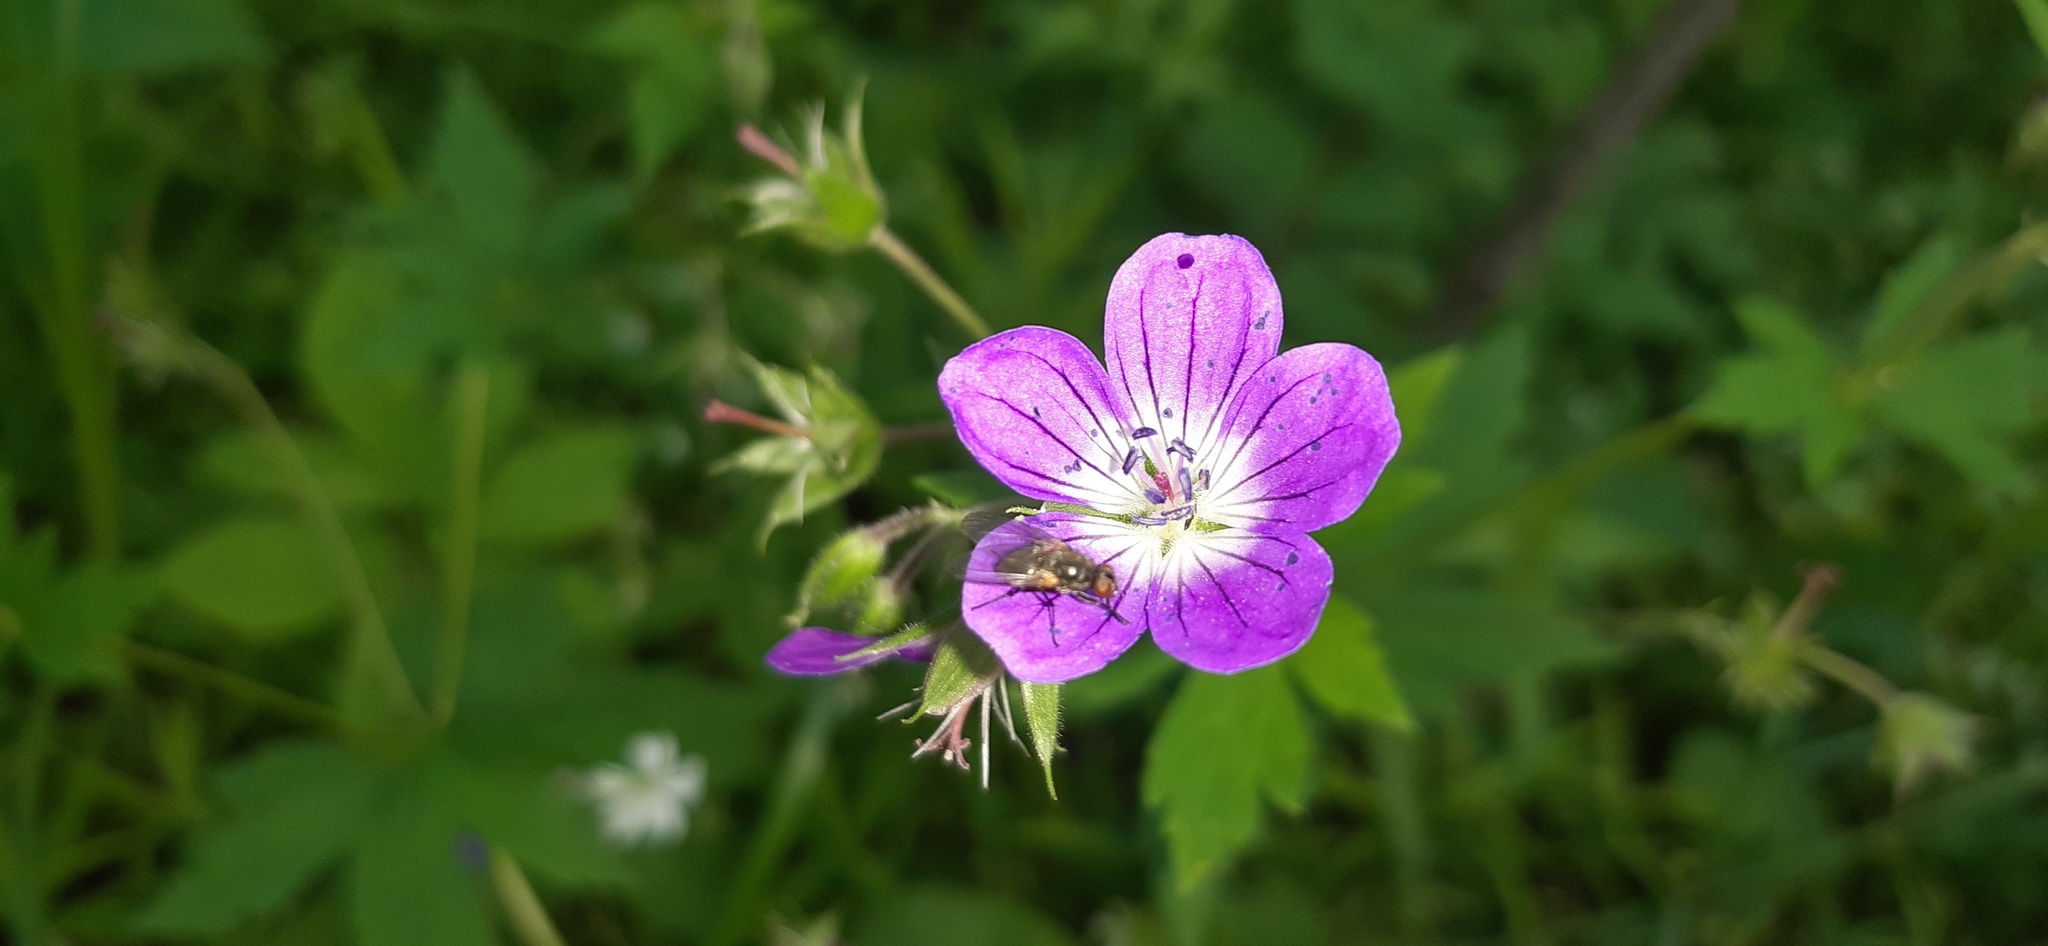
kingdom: Plantae
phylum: Tracheophyta
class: Magnoliopsida
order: Geraniales
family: Geraniaceae
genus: Geranium
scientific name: Geranium sylvaticum
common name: Wood crane's-bill
